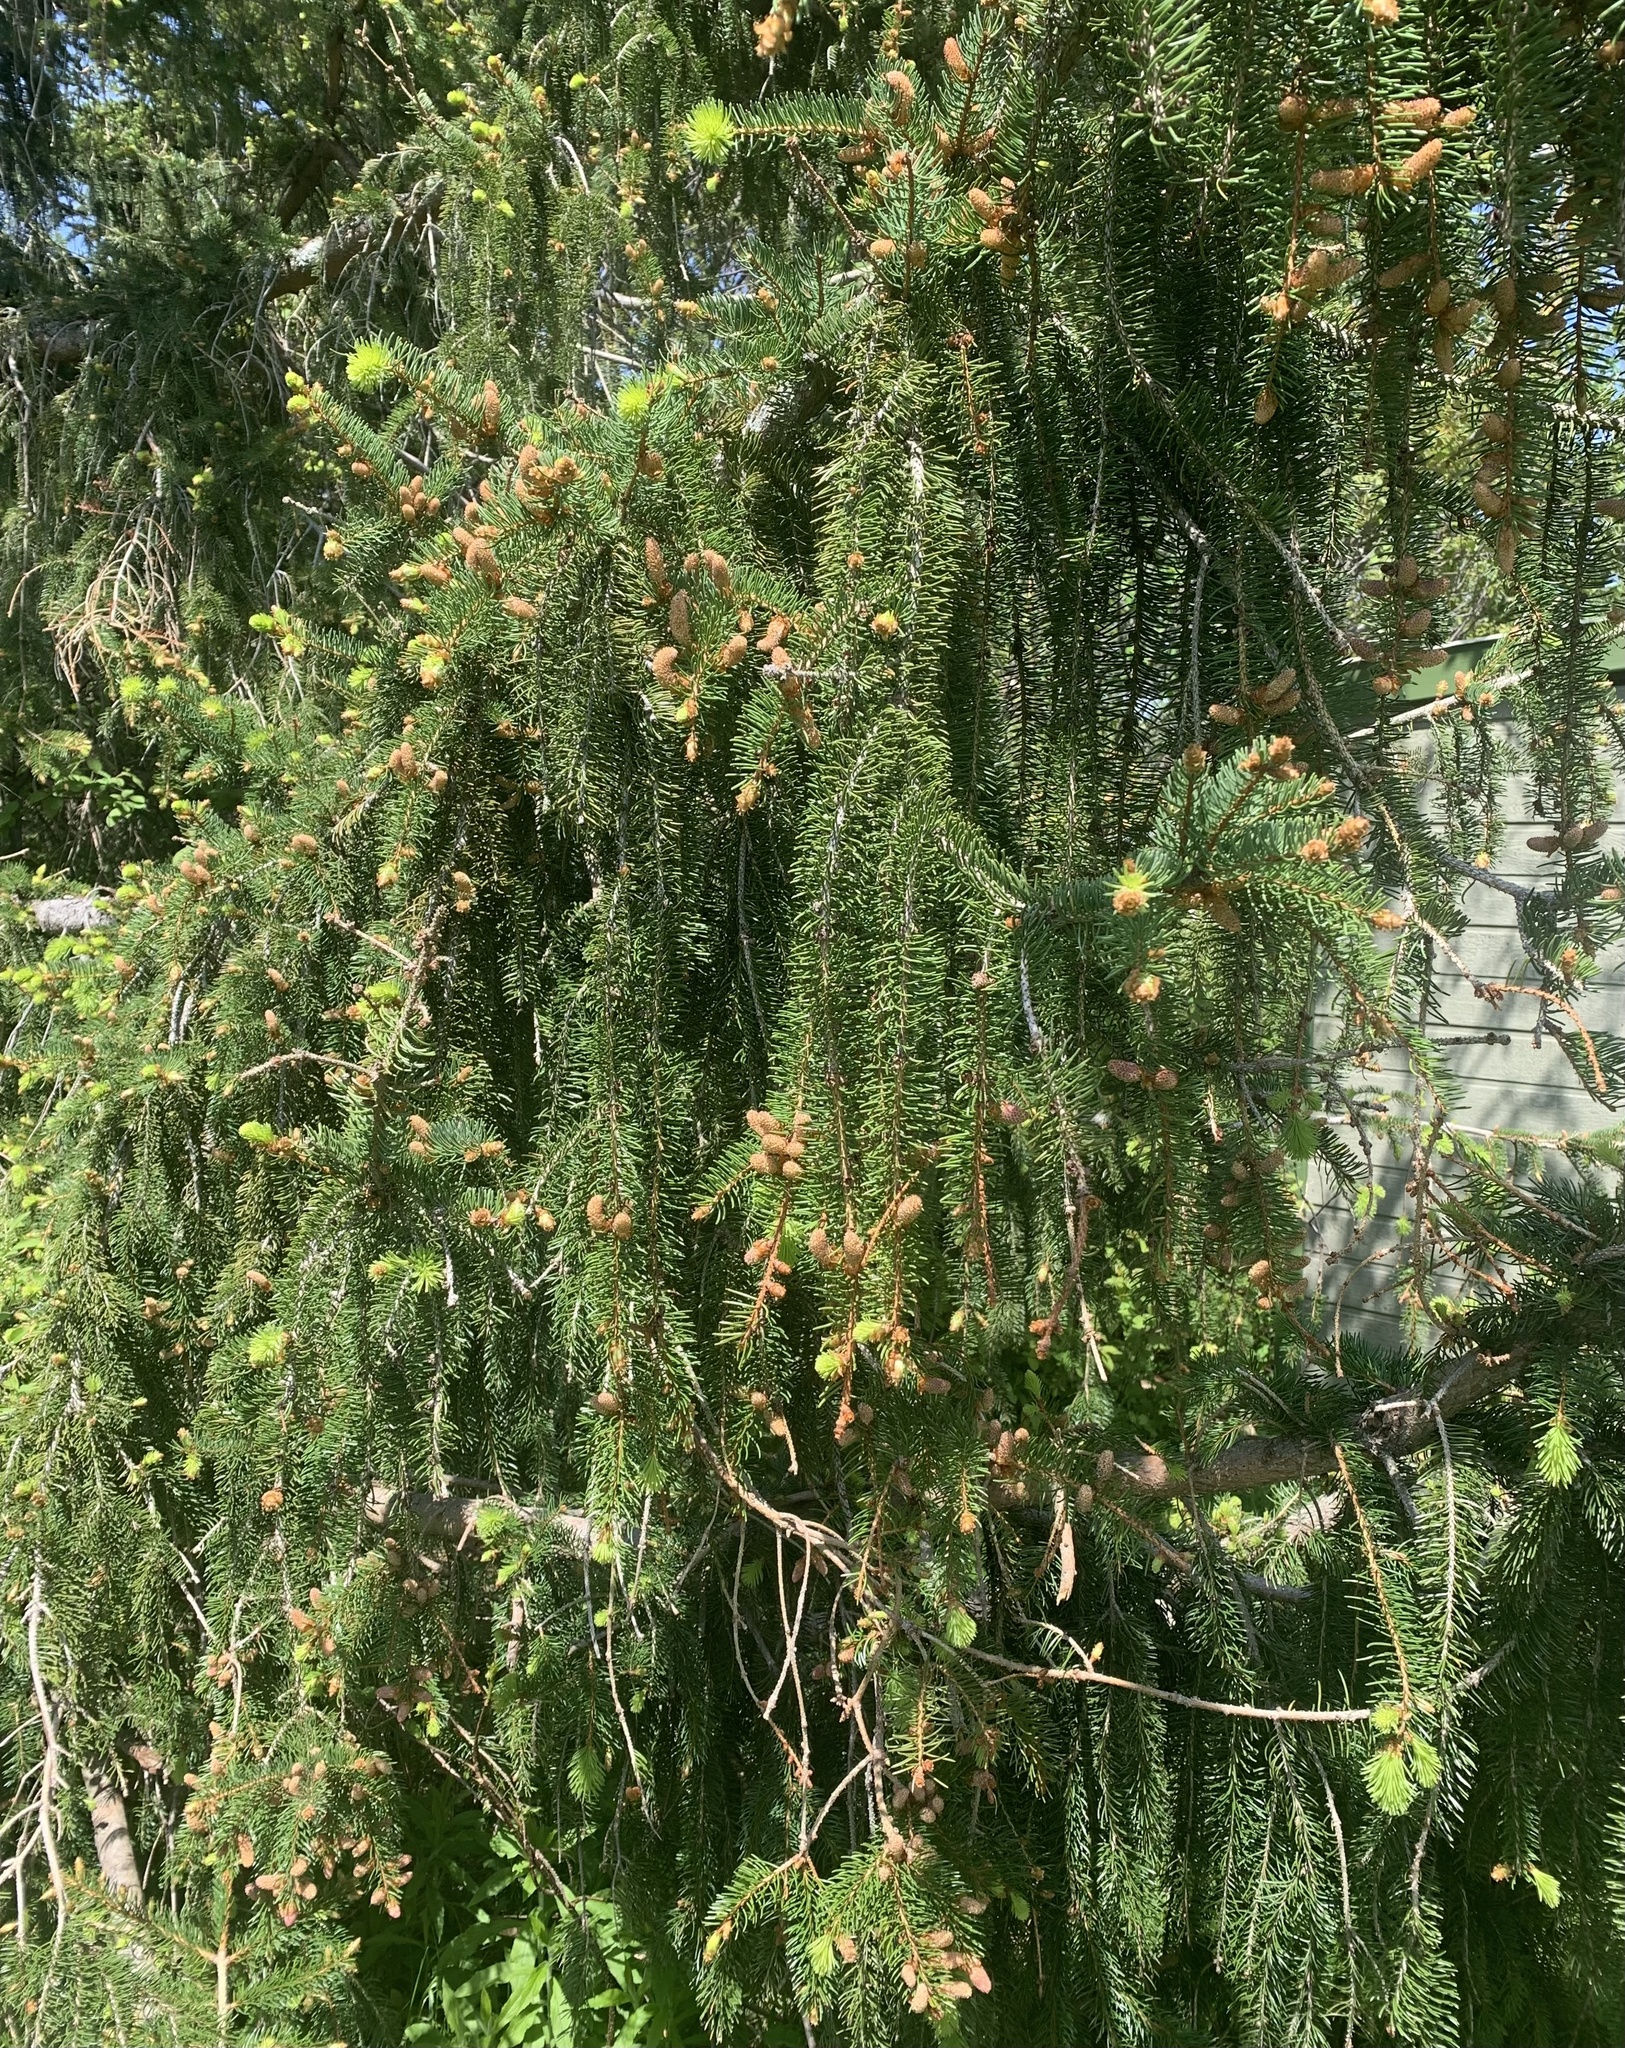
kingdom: Plantae
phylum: Tracheophyta
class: Pinopsida
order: Pinales
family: Pinaceae
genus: Picea
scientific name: Picea abies
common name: Norway spruce
